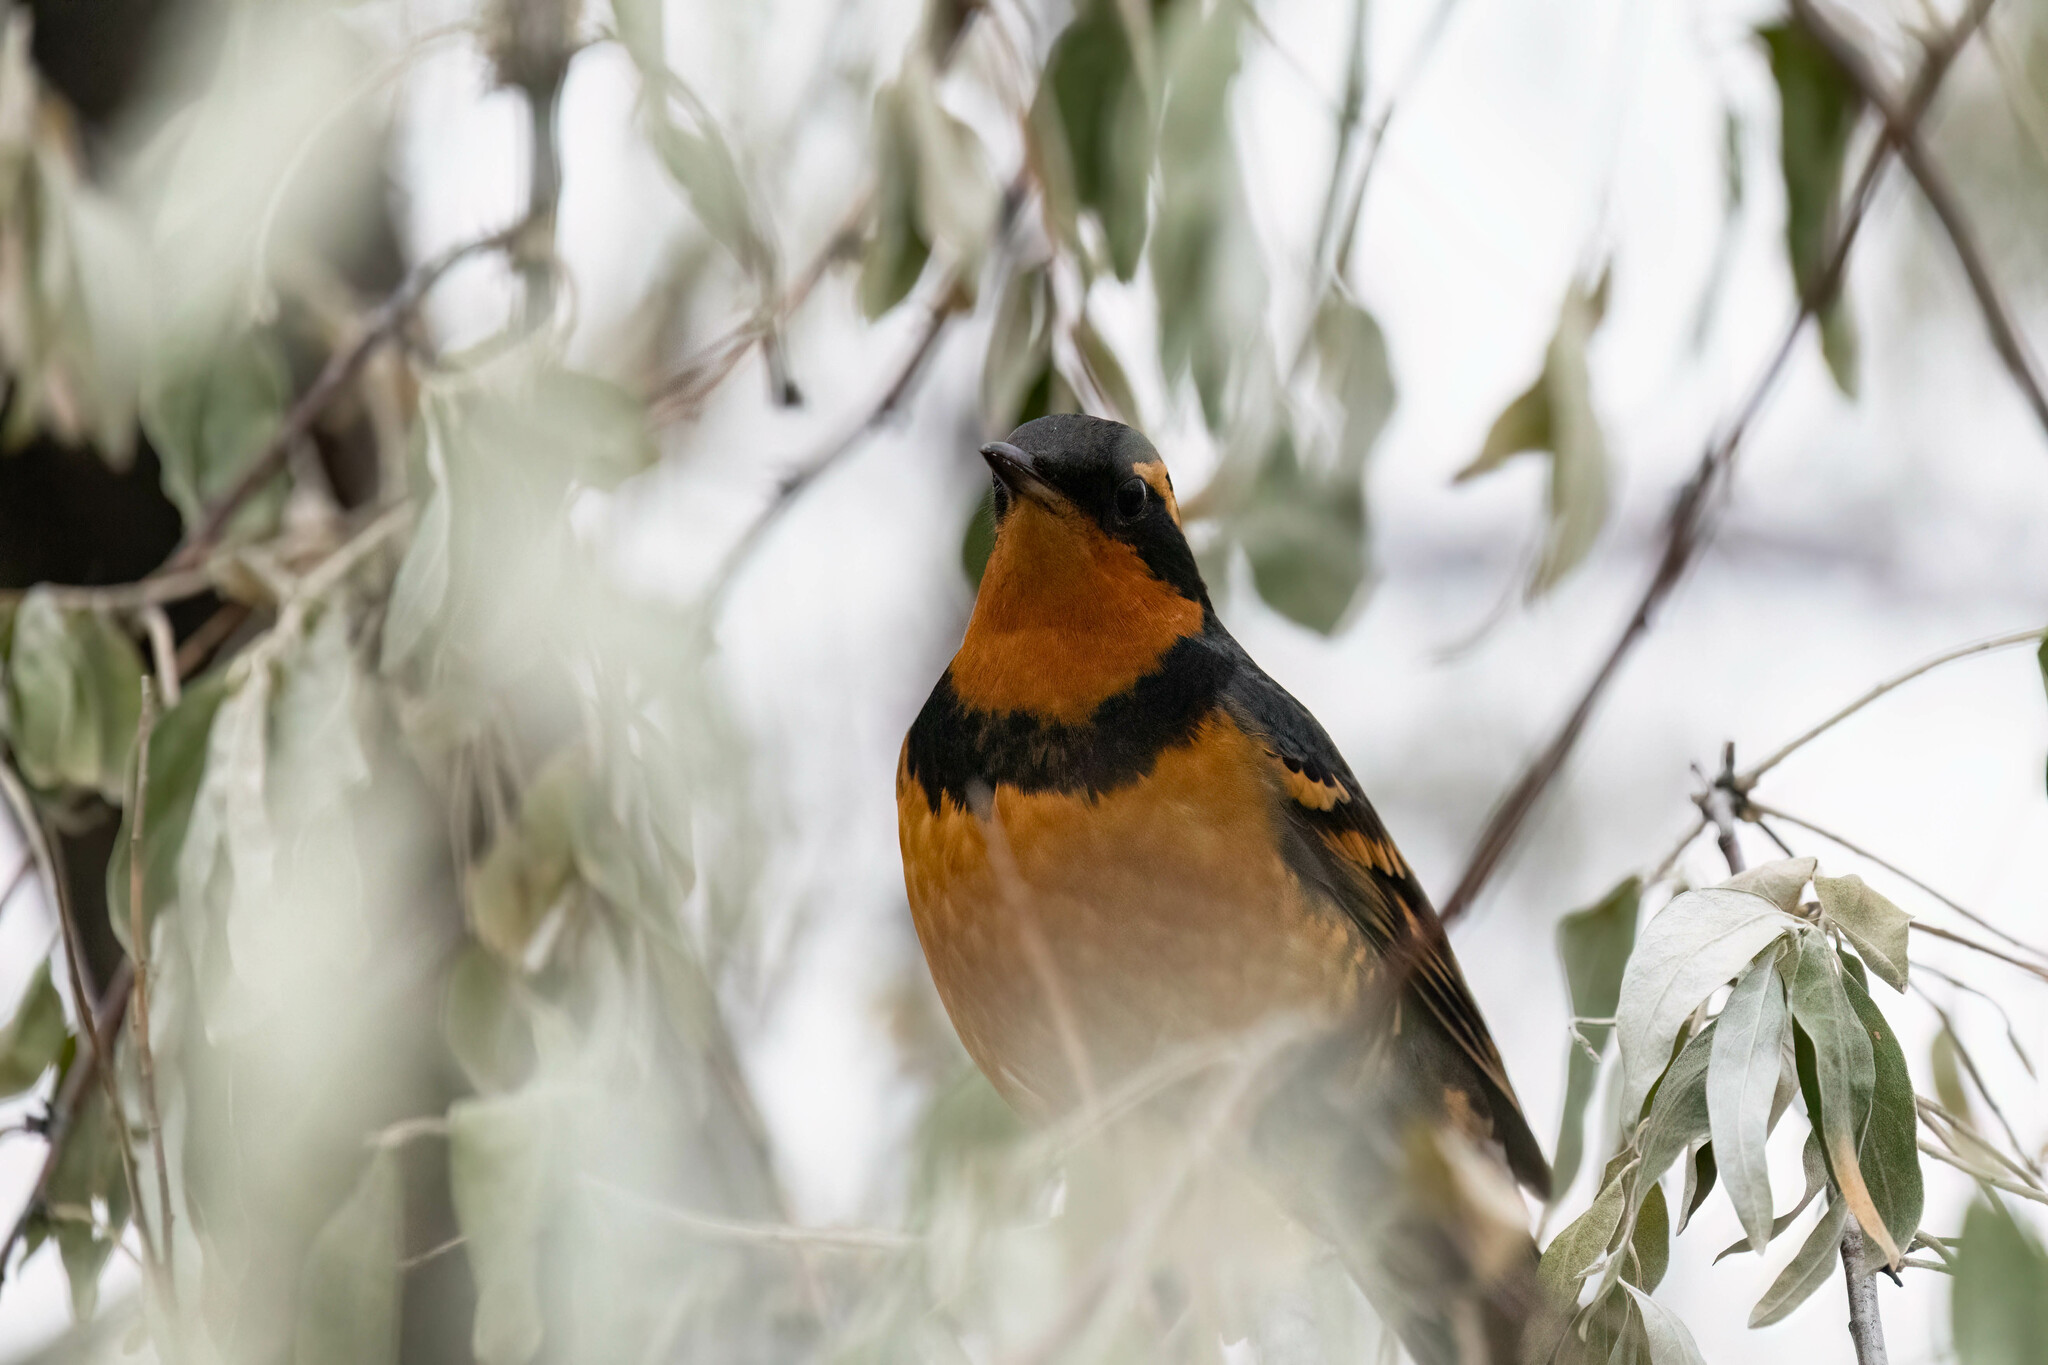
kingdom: Animalia
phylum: Chordata
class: Aves
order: Passeriformes
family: Turdidae
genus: Ixoreus
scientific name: Ixoreus naevius
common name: Varied thrush
